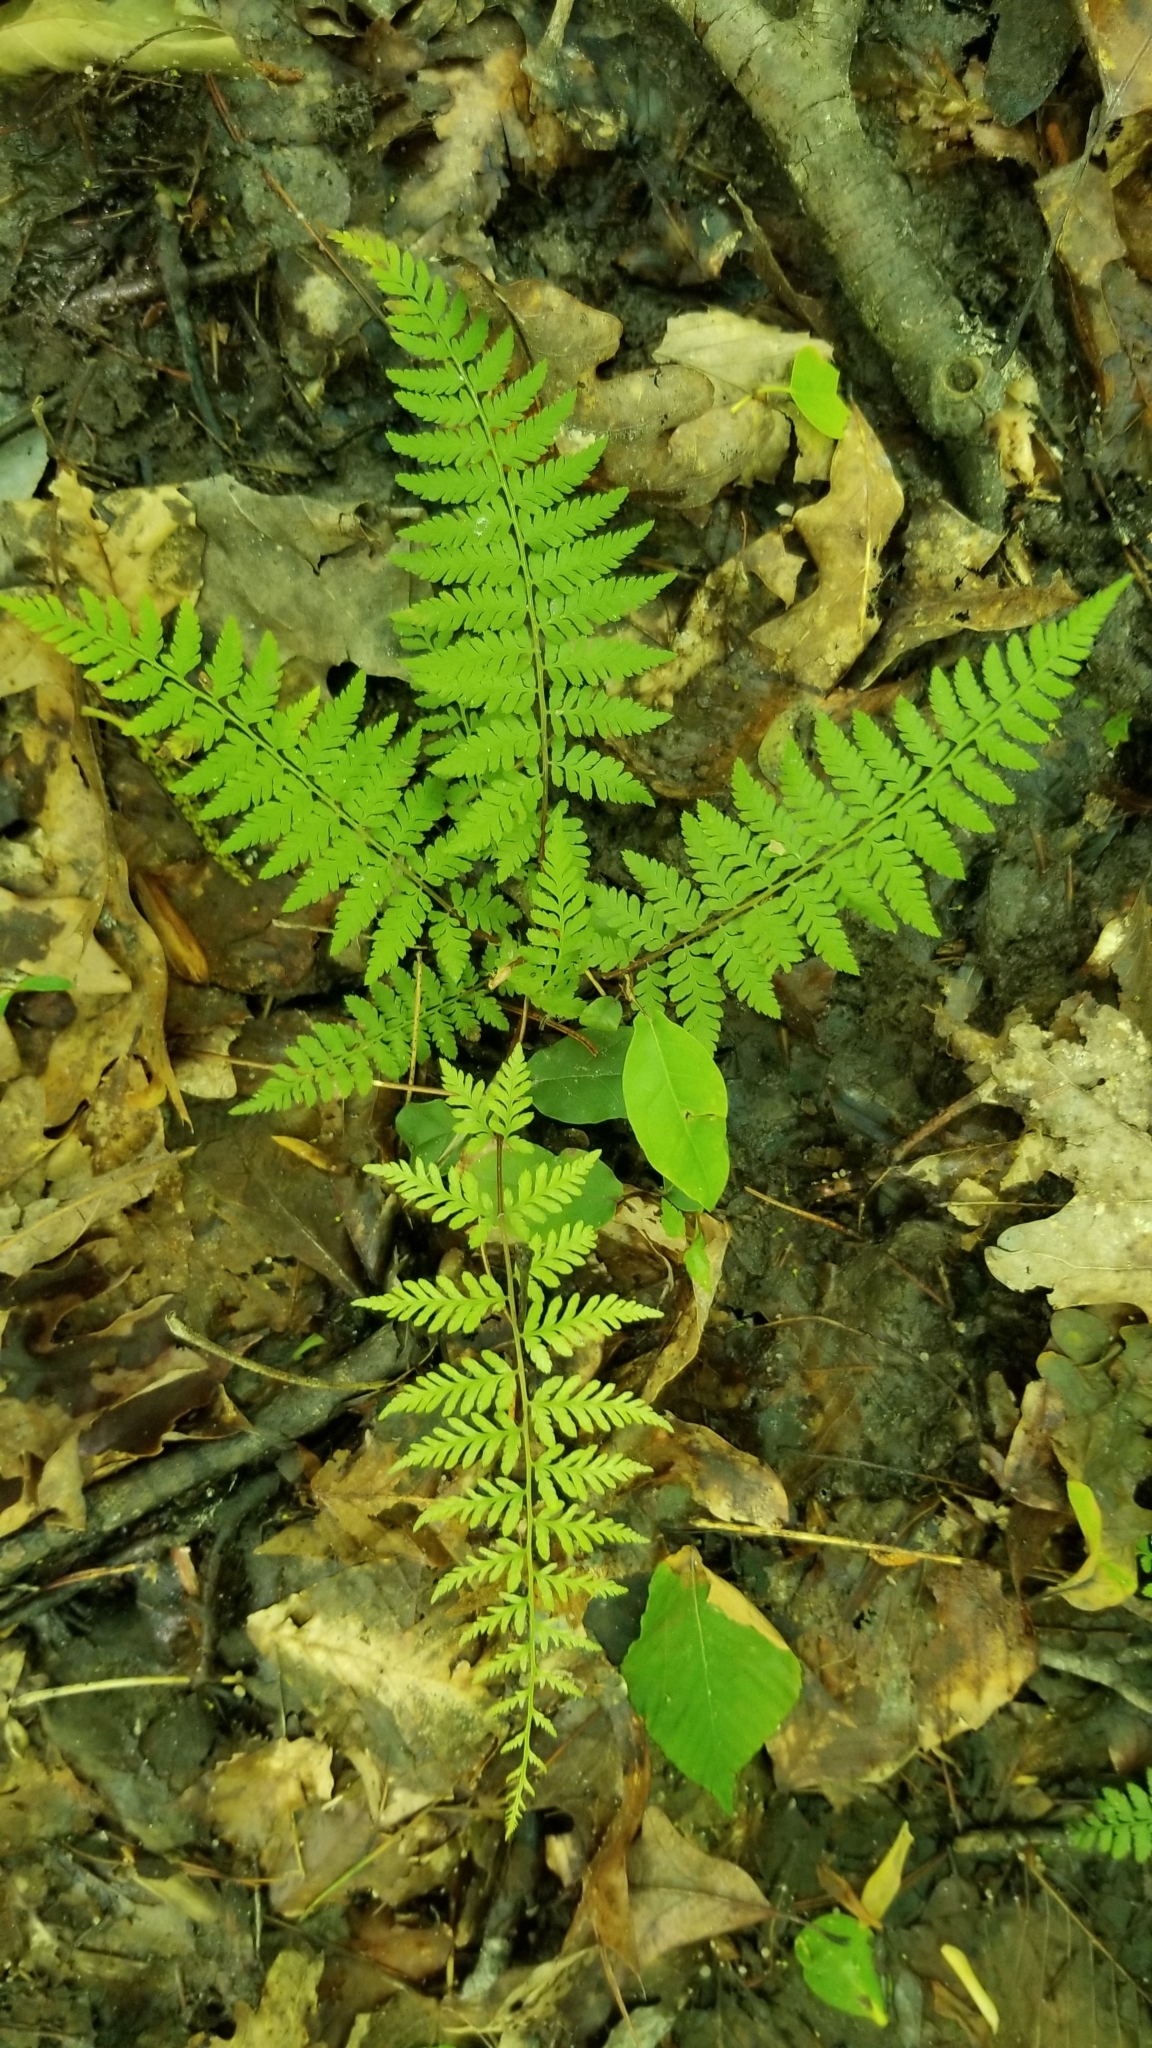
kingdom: Plantae
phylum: Tracheophyta
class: Polypodiopsida
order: Polypodiales
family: Athyriaceae
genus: Athyrium
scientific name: Athyrium asplenioides
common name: Southern lady fern
